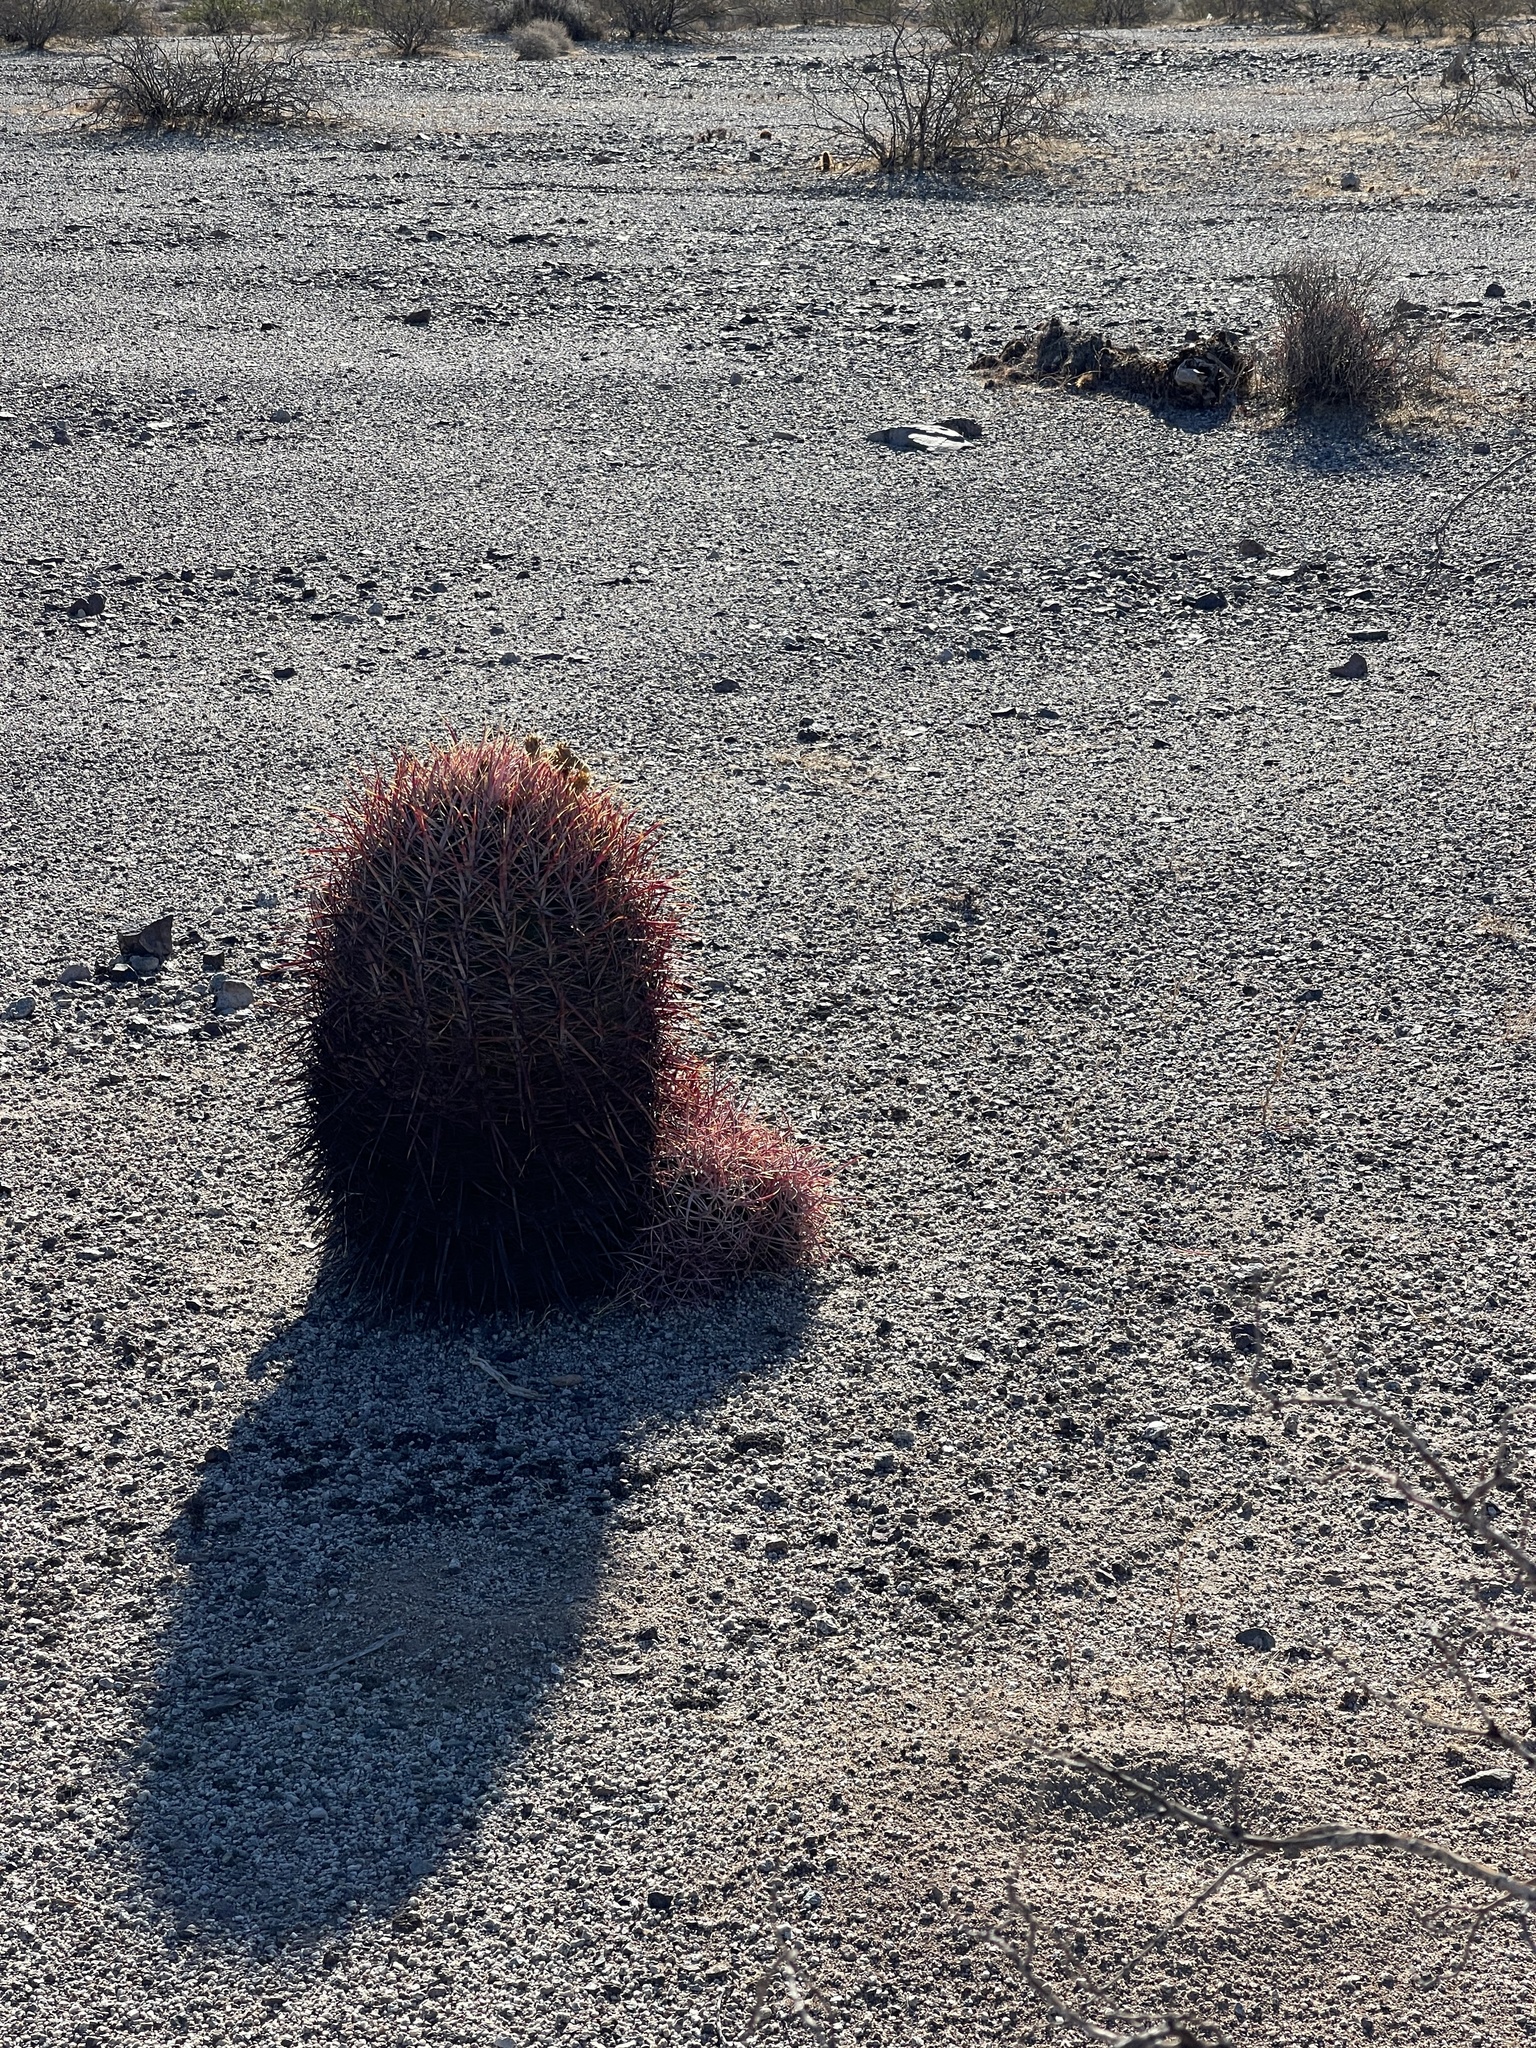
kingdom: Plantae
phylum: Tracheophyta
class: Magnoliopsida
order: Caryophyllales
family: Cactaceae
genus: Ferocactus
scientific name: Ferocactus cylindraceus
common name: California barrel cactus
